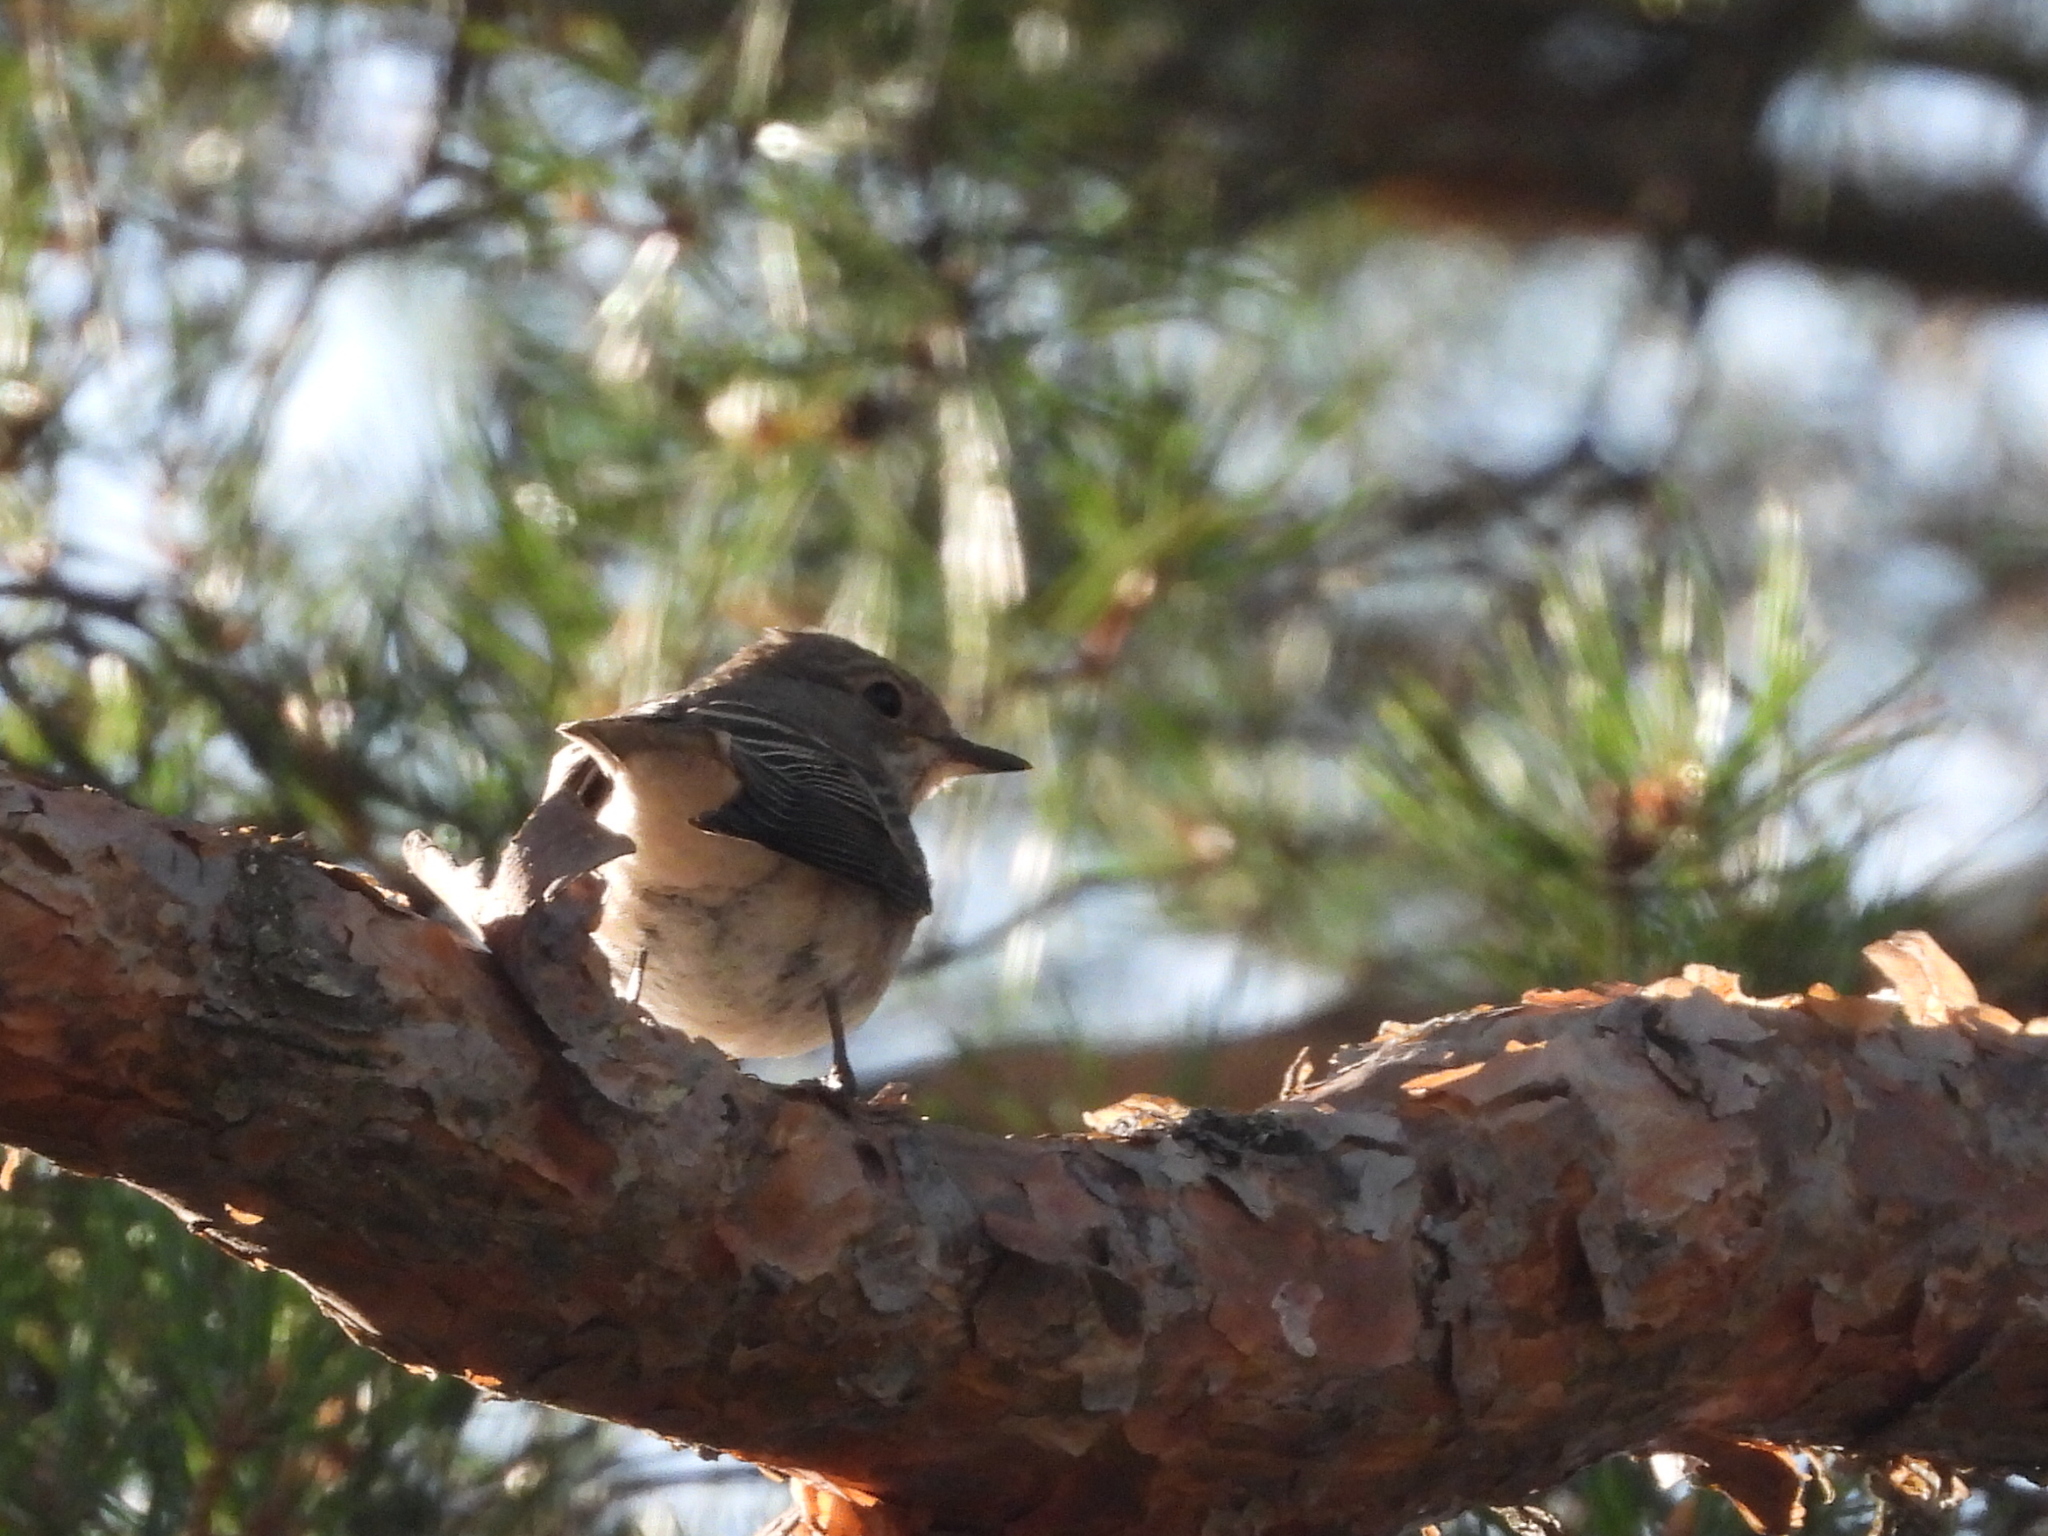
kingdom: Animalia
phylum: Chordata
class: Aves
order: Passeriformes
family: Muscicapidae
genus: Muscicapa
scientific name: Muscicapa striata
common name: Spotted flycatcher
